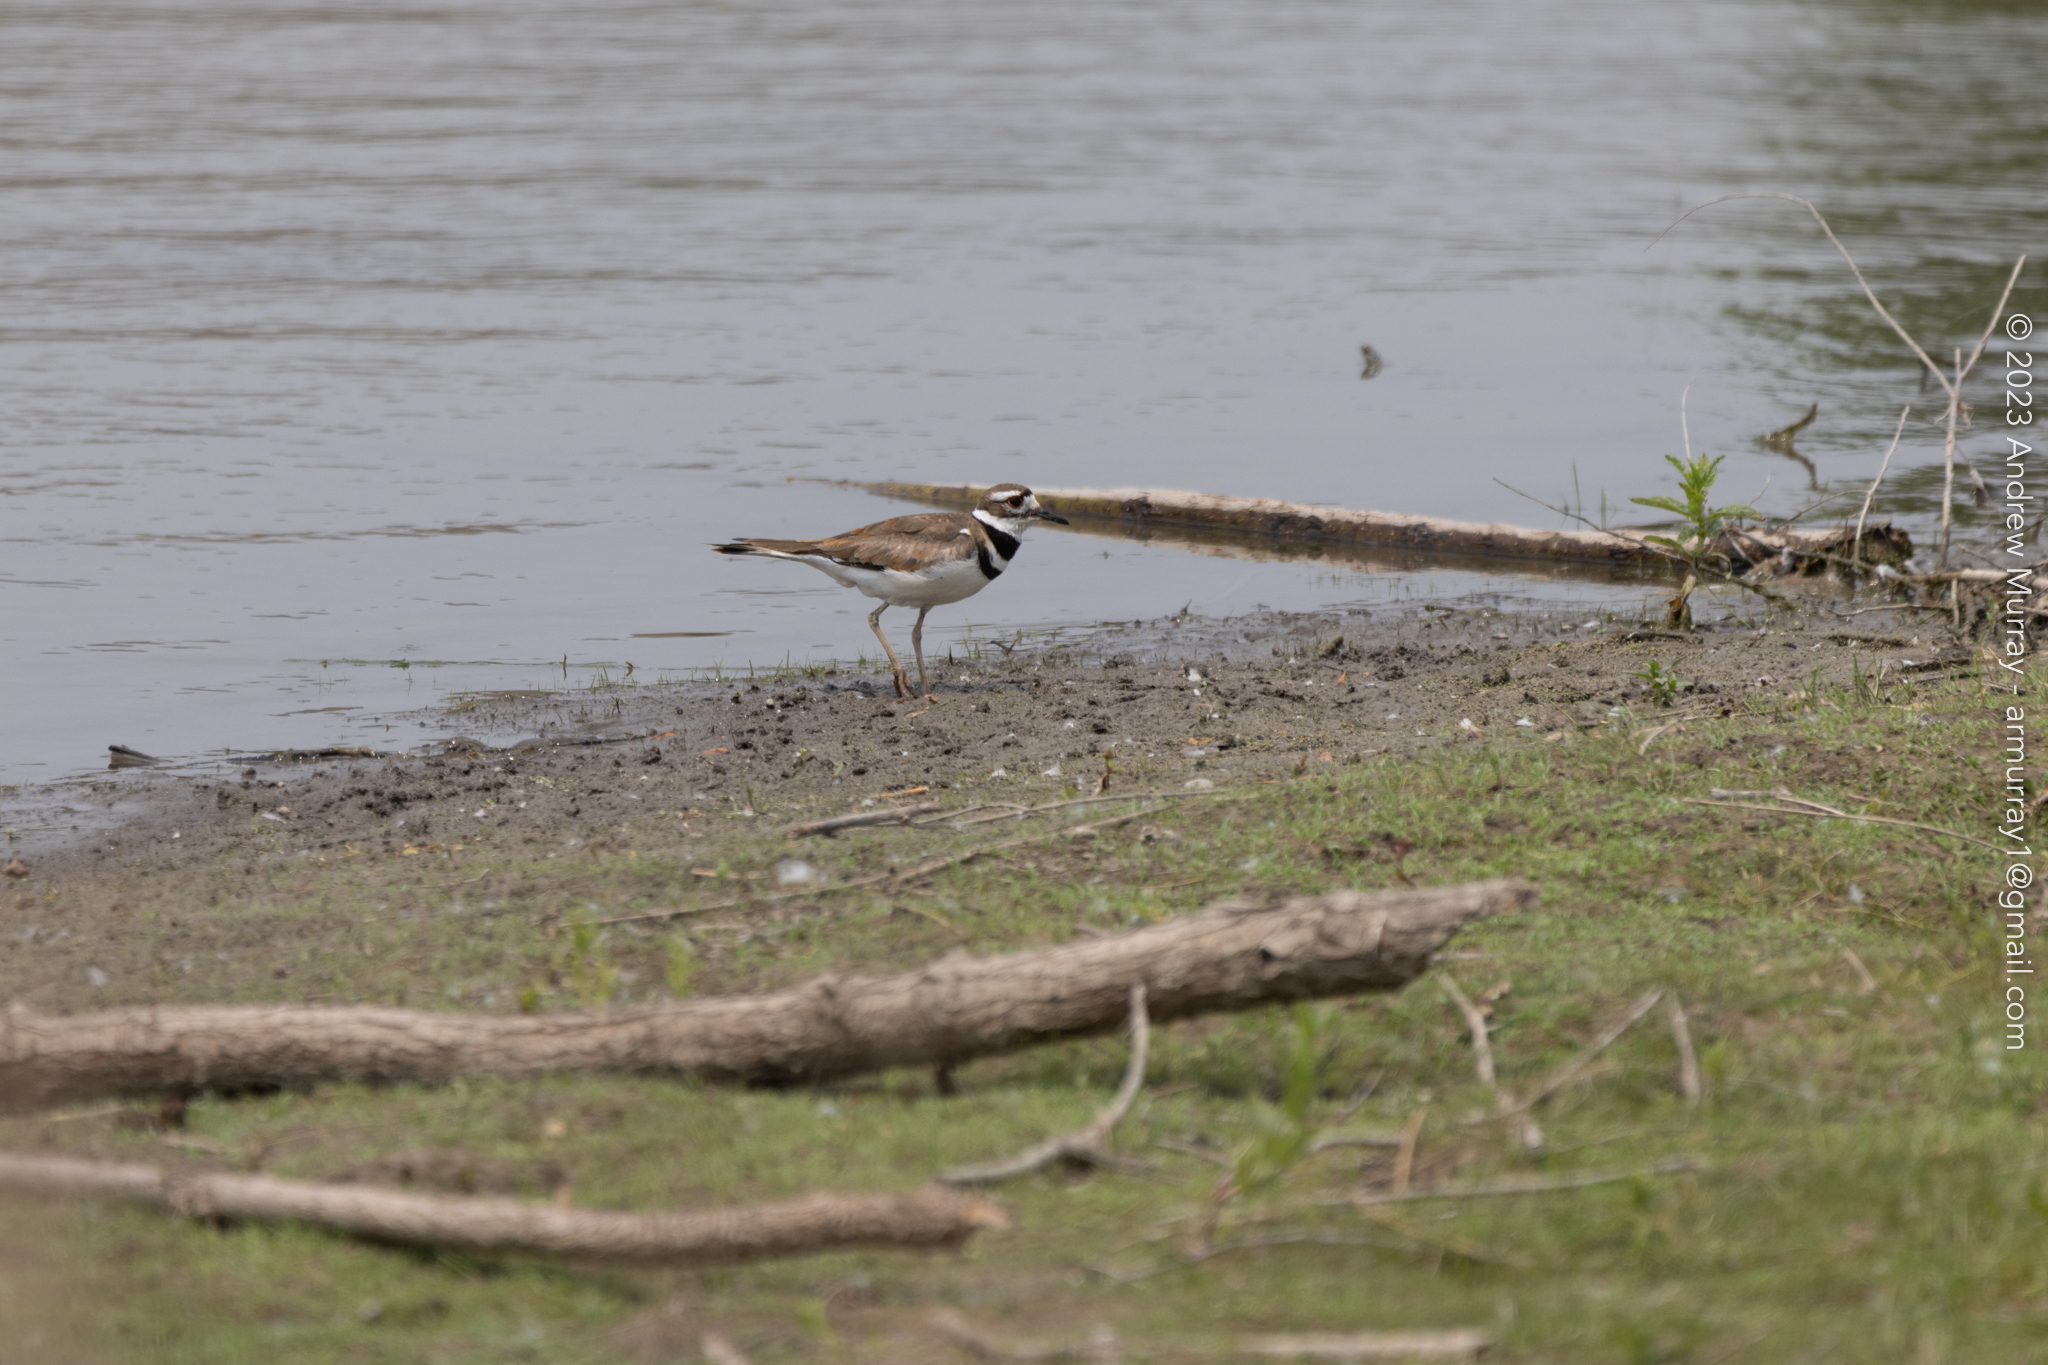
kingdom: Animalia
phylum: Chordata
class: Aves
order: Charadriiformes
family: Charadriidae
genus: Charadrius
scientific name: Charadrius vociferus
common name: Killdeer
